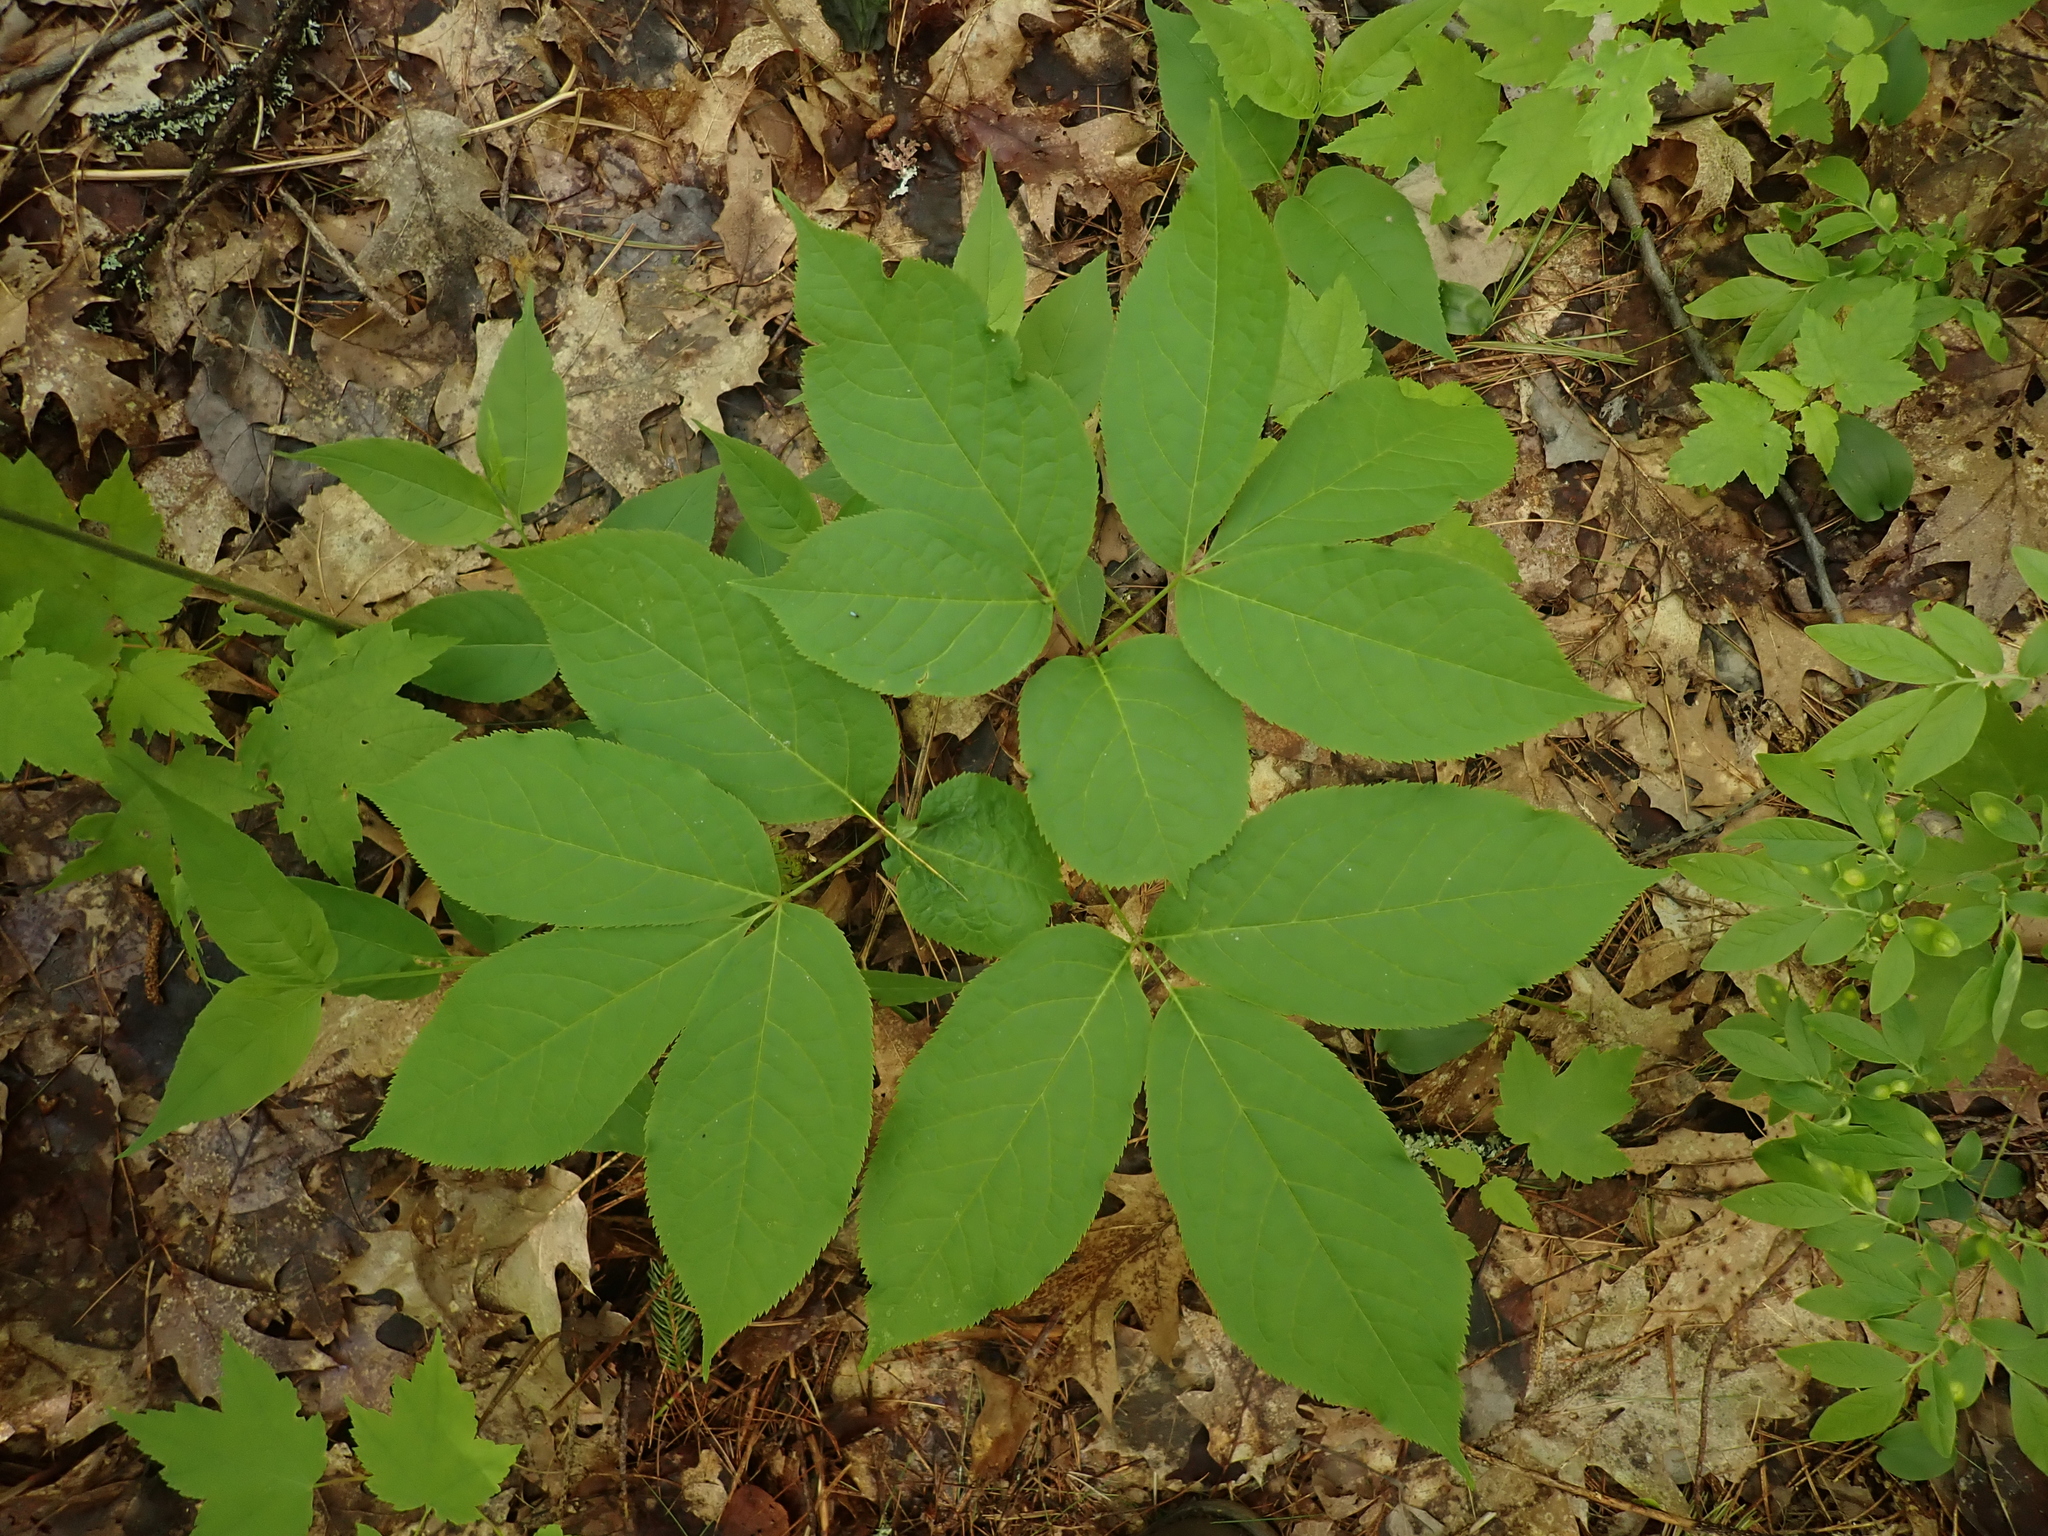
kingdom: Plantae
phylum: Tracheophyta
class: Magnoliopsida
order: Apiales
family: Araliaceae
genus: Aralia
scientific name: Aralia nudicaulis
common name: Wild sarsaparilla
